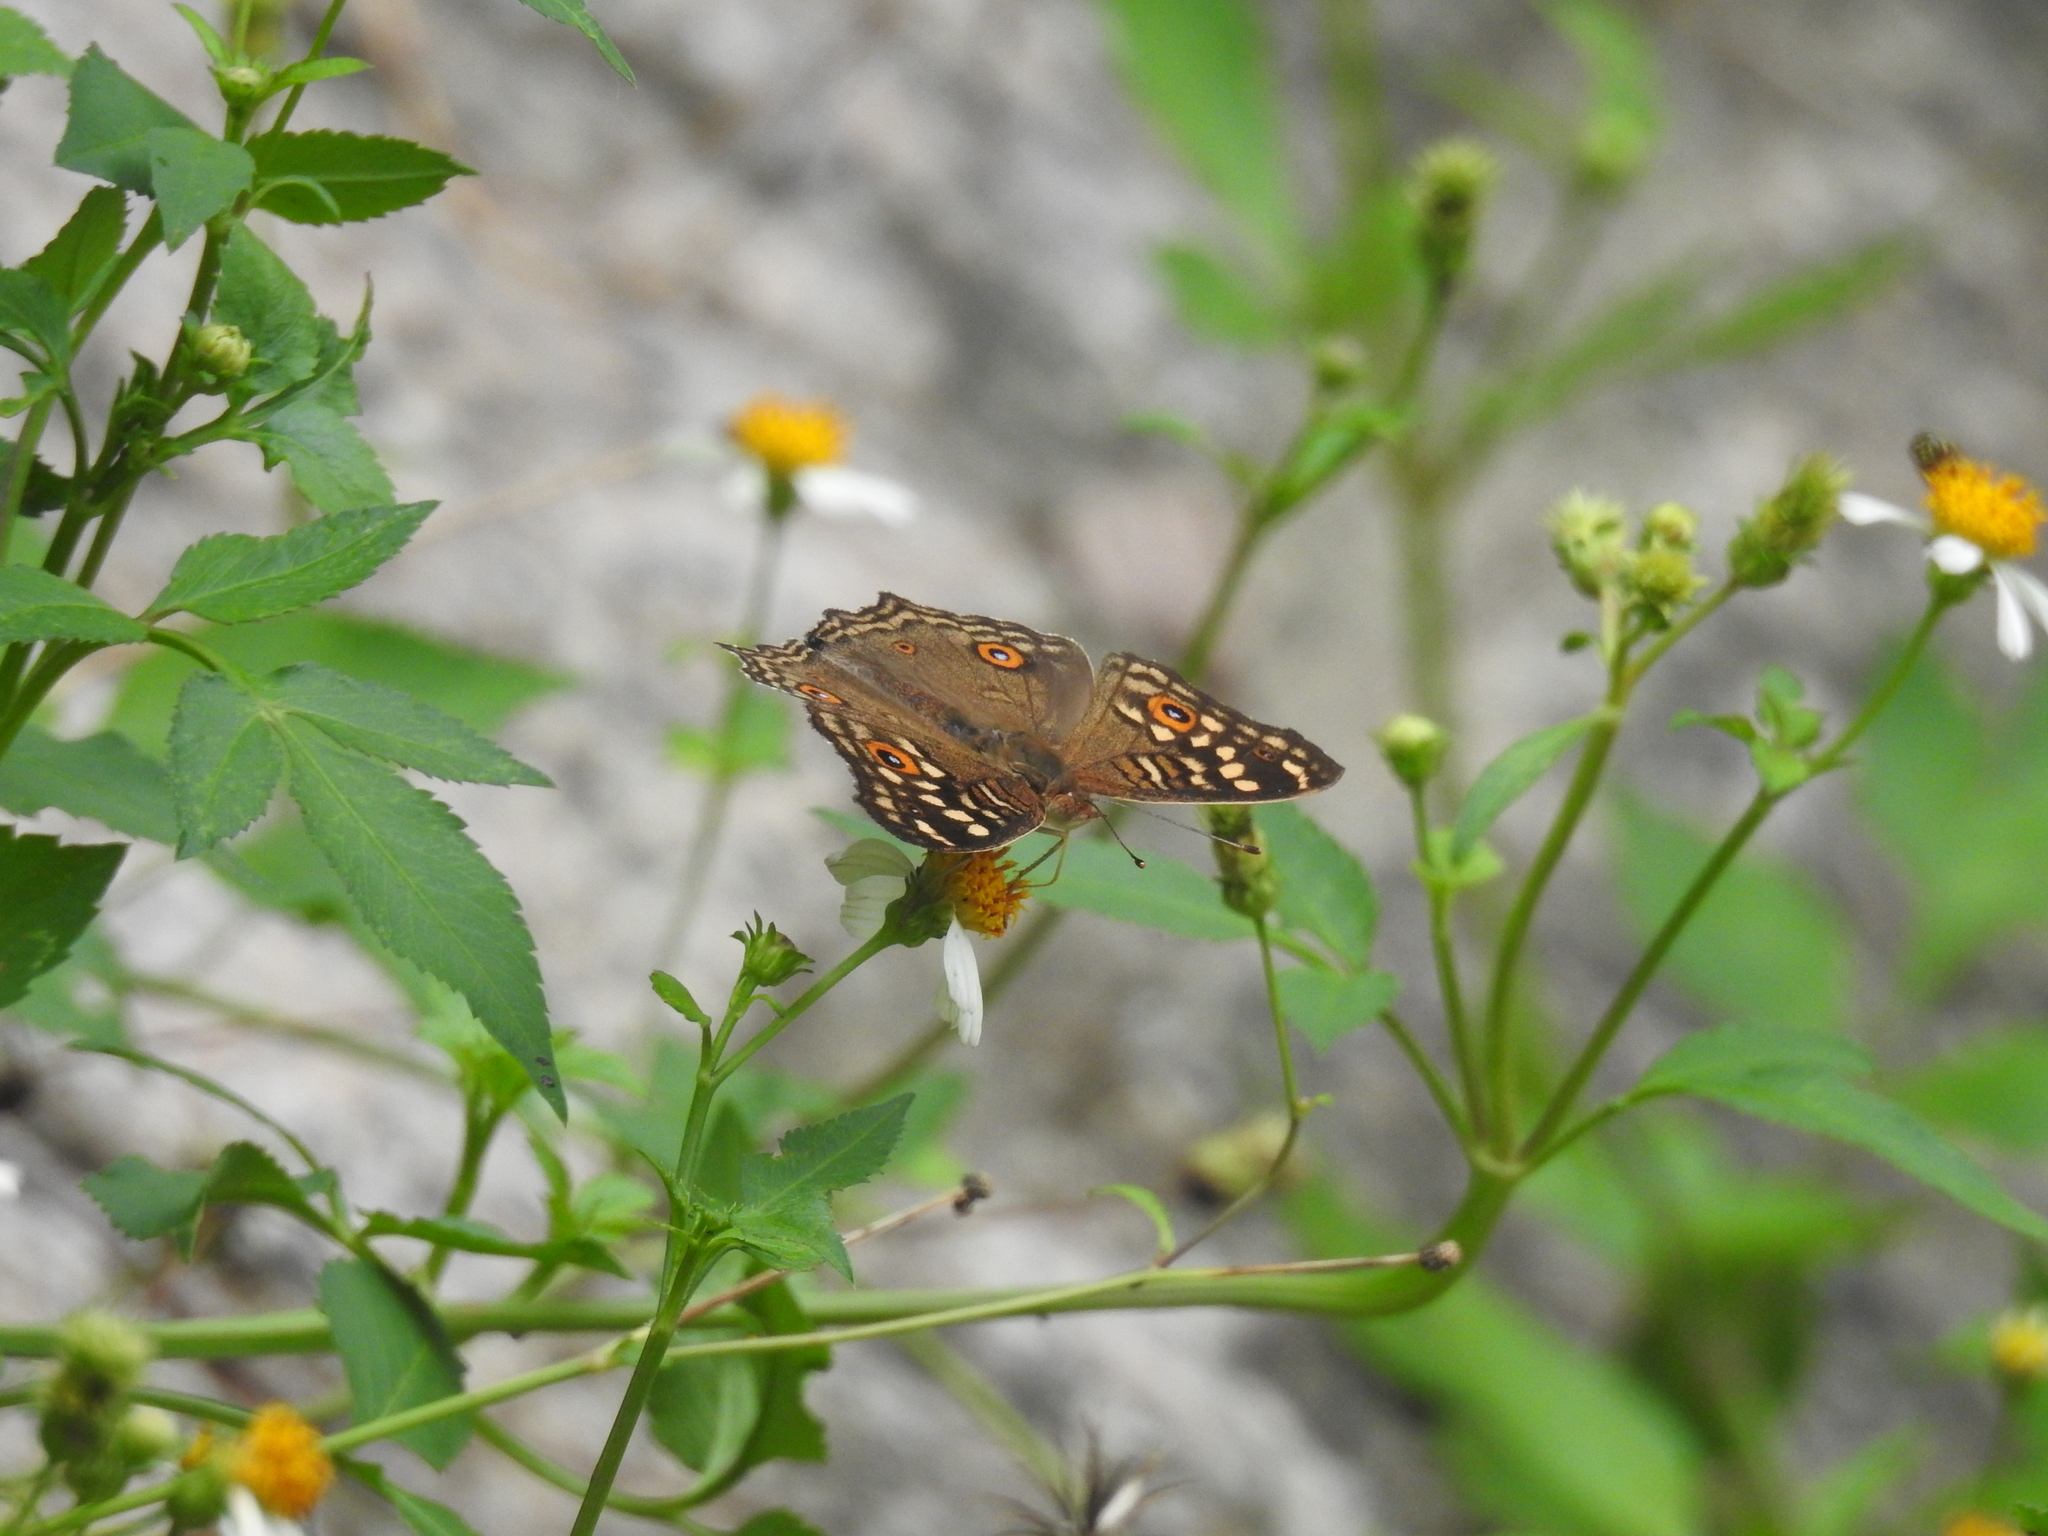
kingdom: Animalia
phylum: Arthropoda
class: Insecta
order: Lepidoptera
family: Nymphalidae
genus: Junonia
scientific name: Junonia lemonias
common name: Lemon pansy
